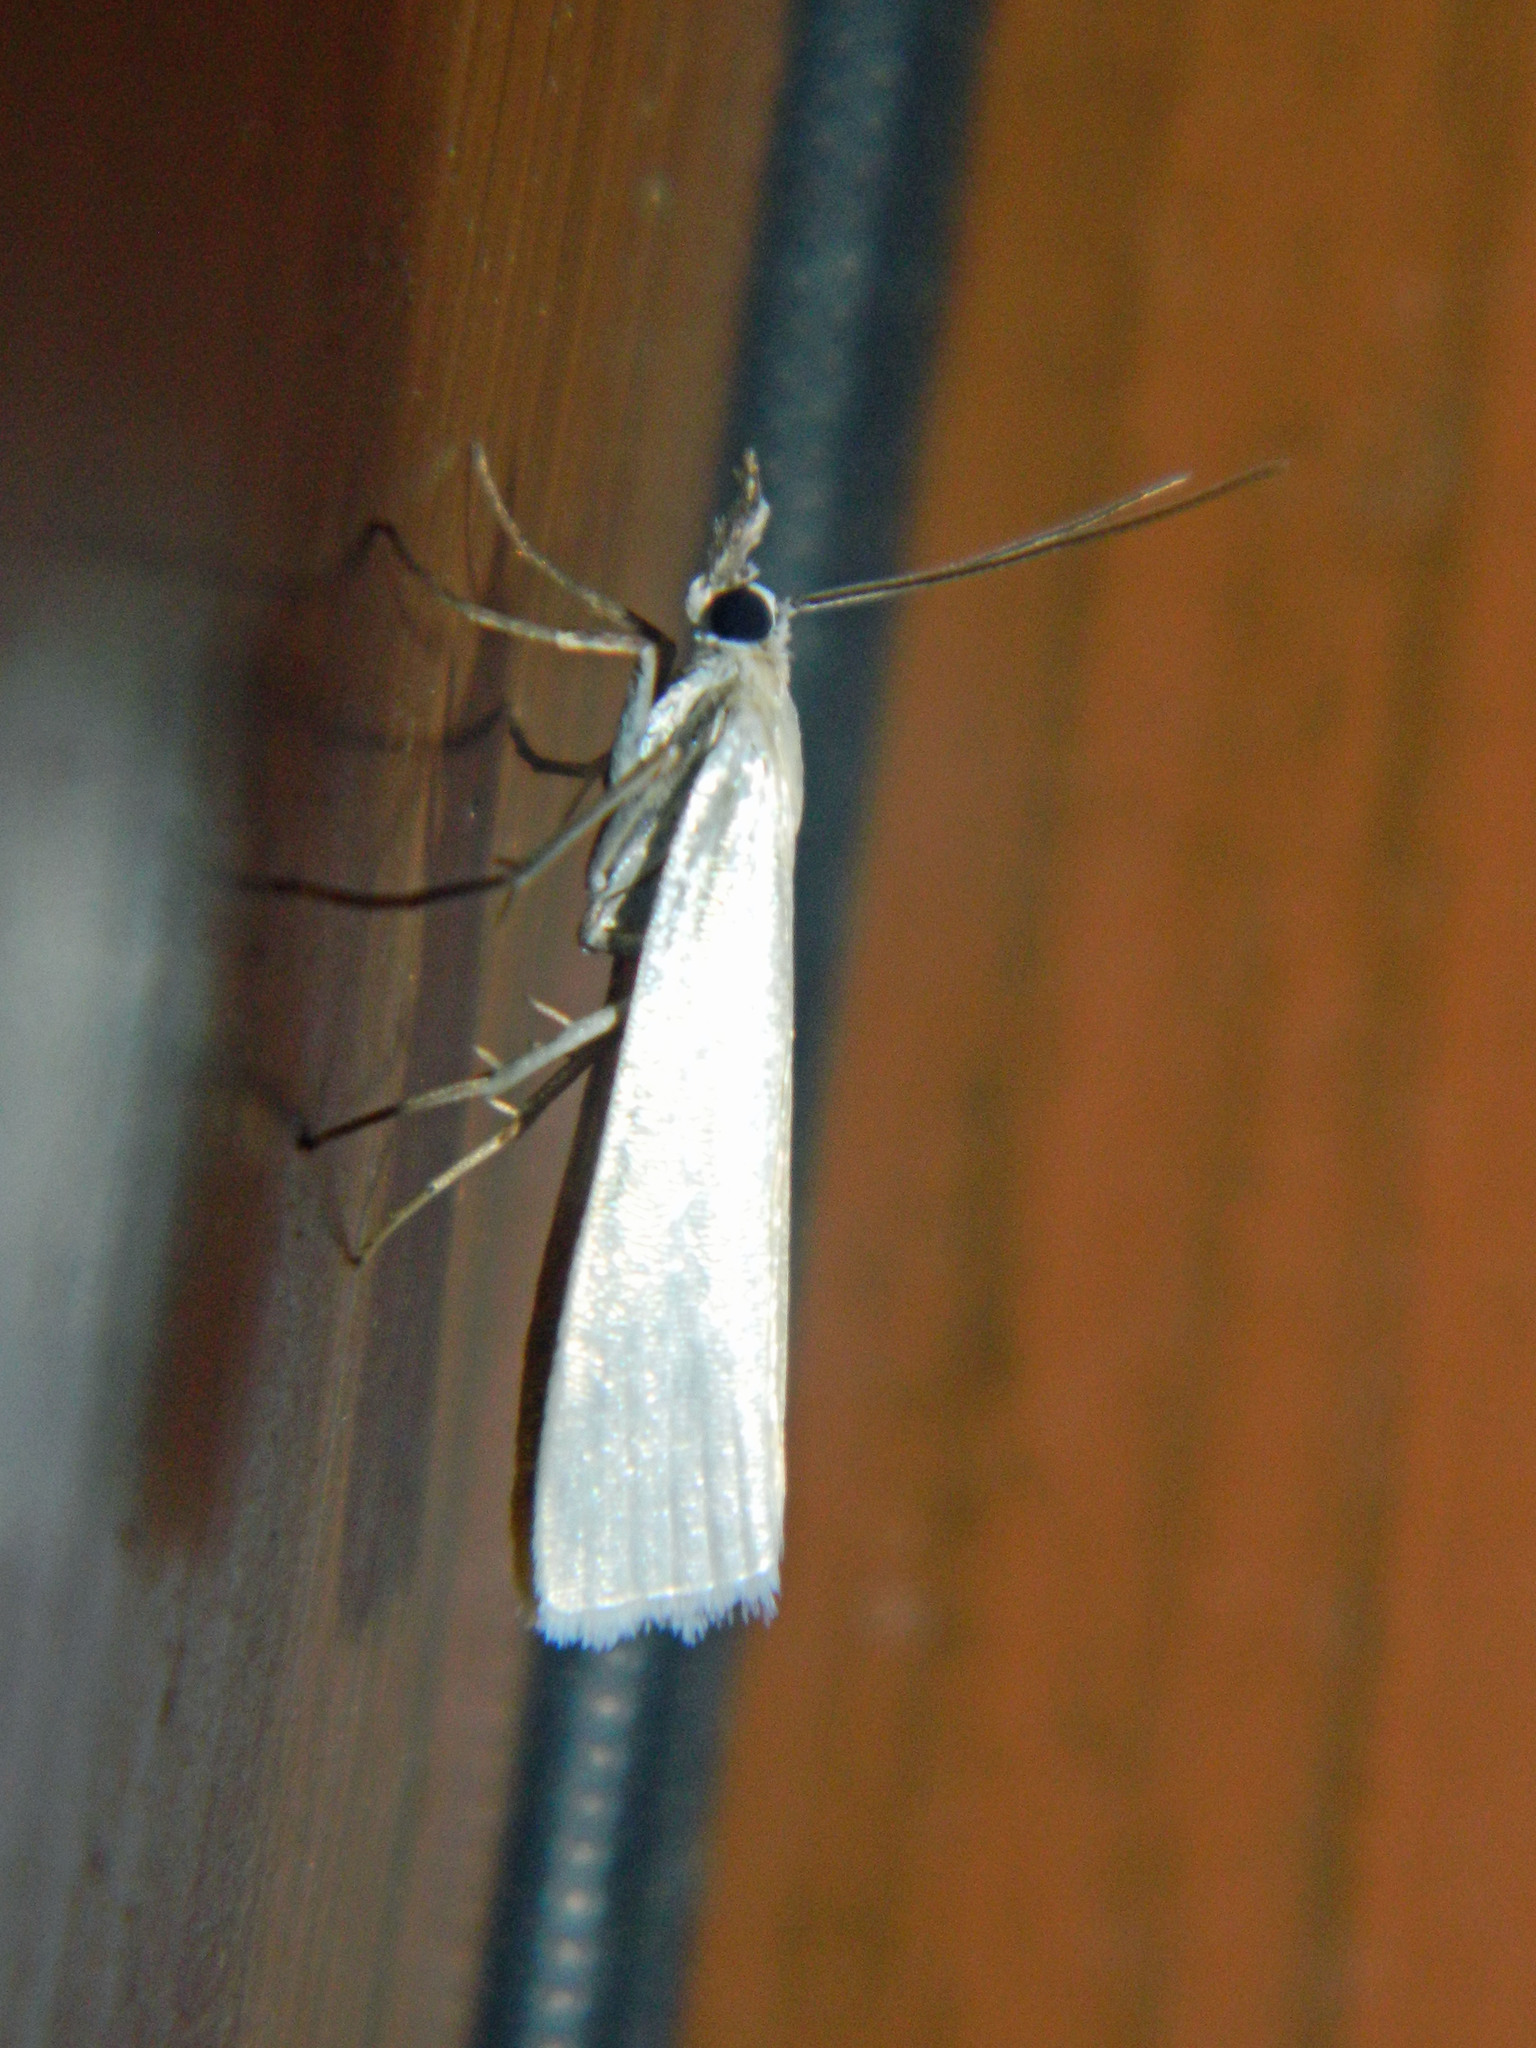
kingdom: Animalia
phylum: Arthropoda
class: Insecta
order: Lepidoptera
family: Crambidae
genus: Crambus
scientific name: Crambus perlellus
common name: Yellow satin veneer
